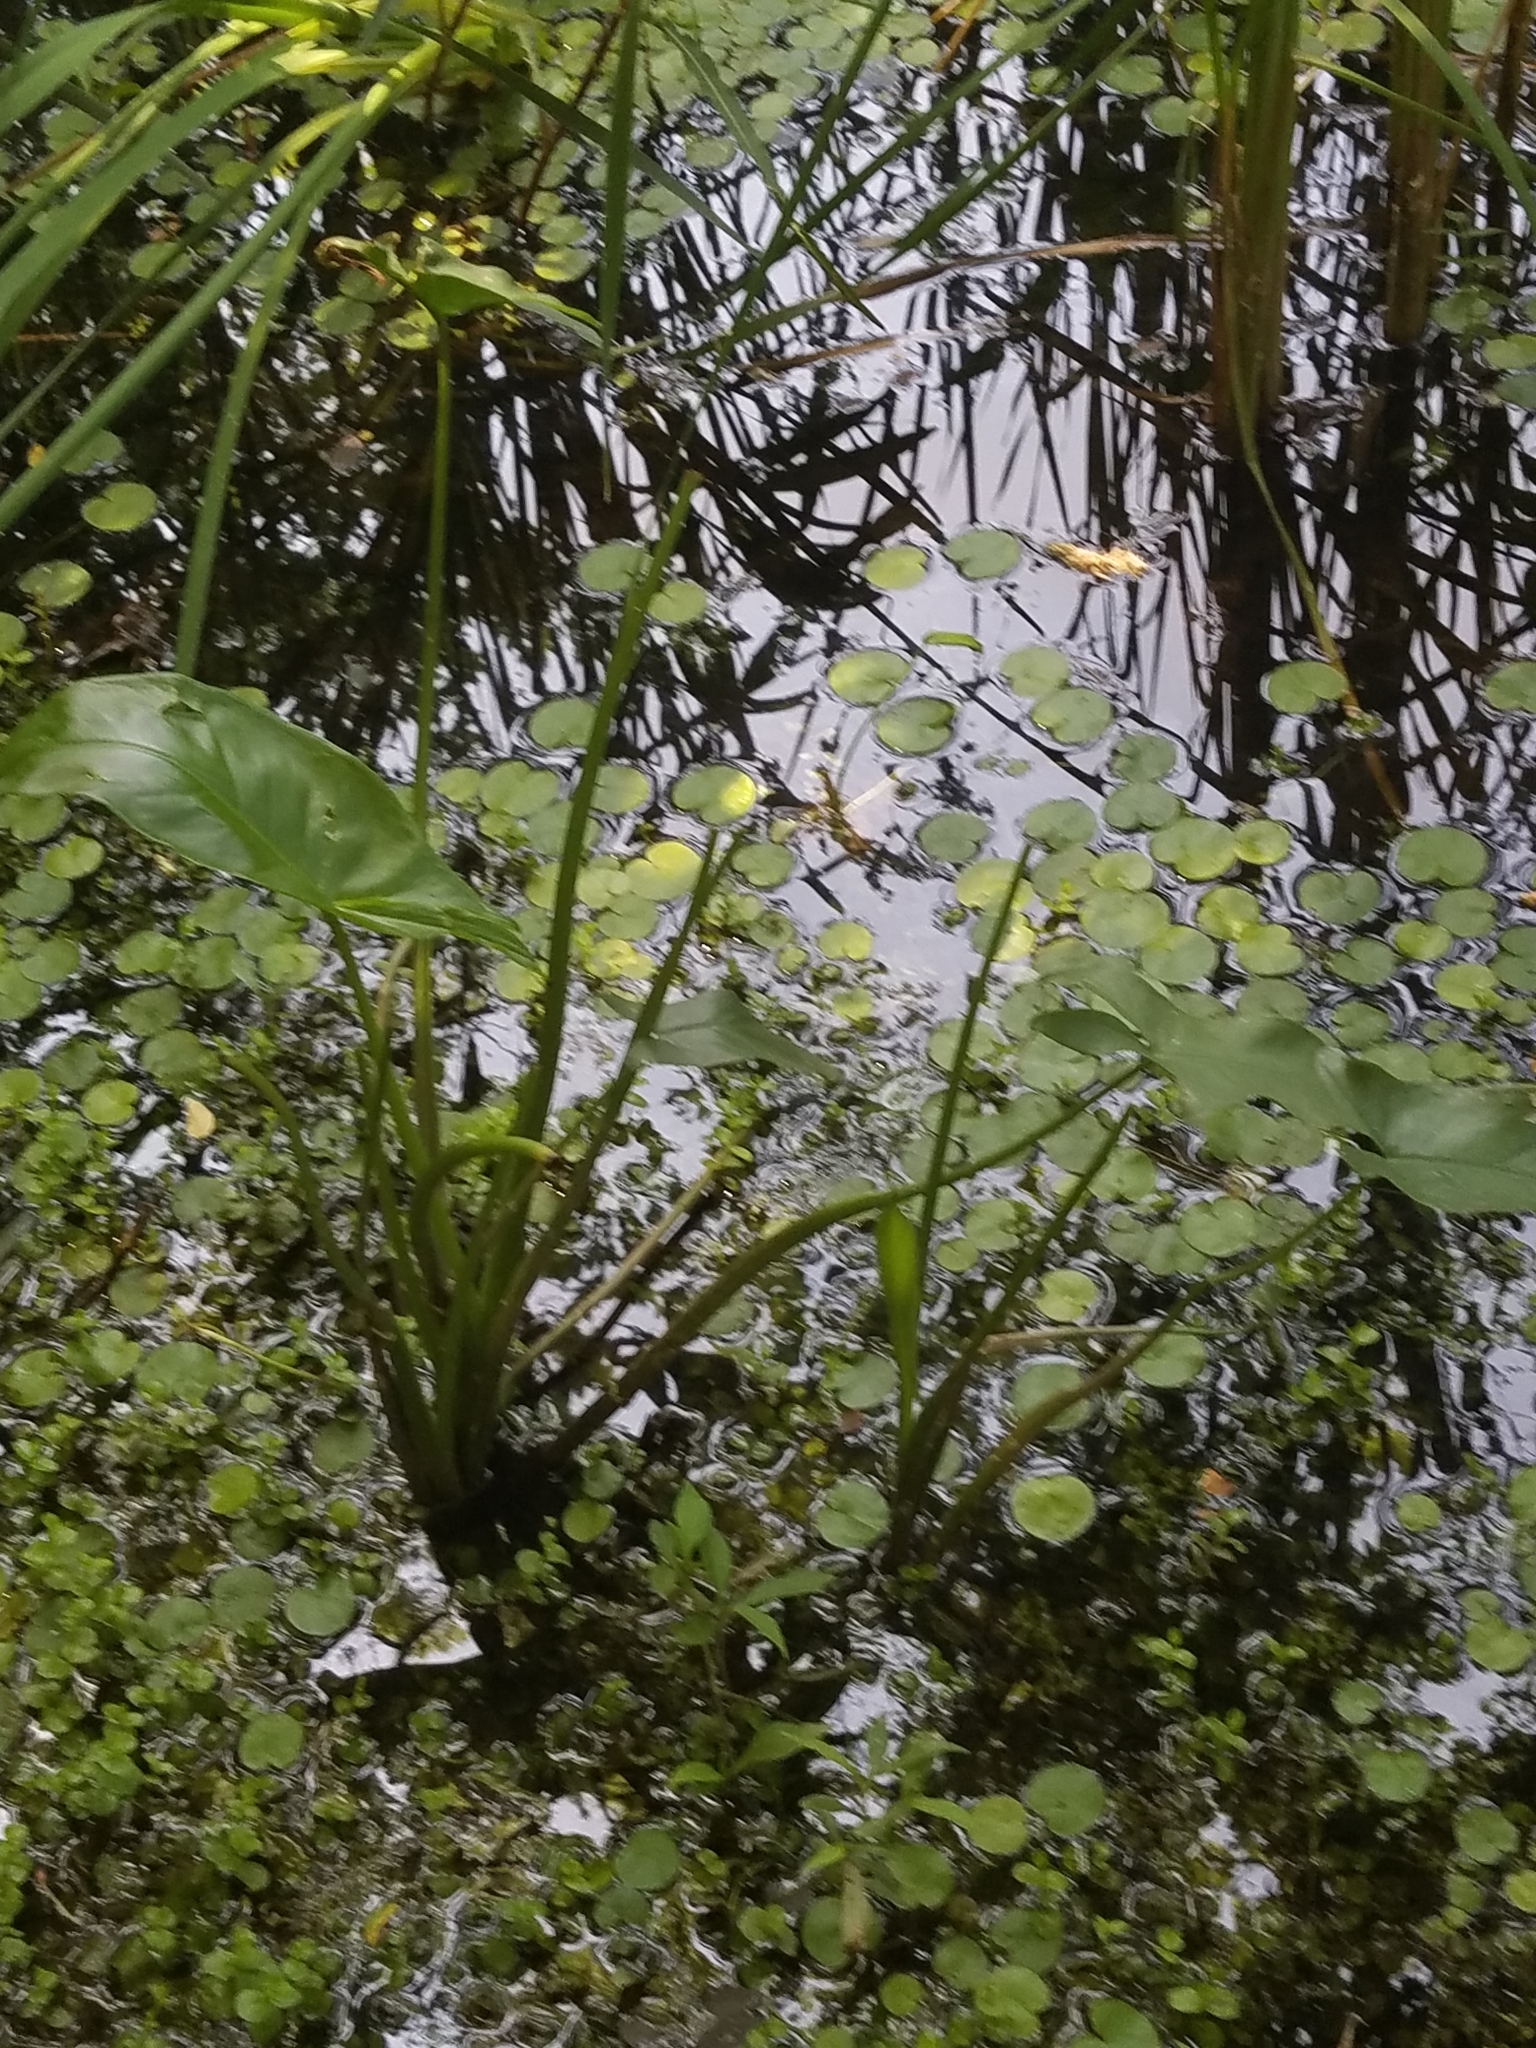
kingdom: Plantae
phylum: Tracheophyta
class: Liliopsida
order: Alismatales
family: Araceae
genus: Peltandra
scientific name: Peltandra virginica
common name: Arrow arum
